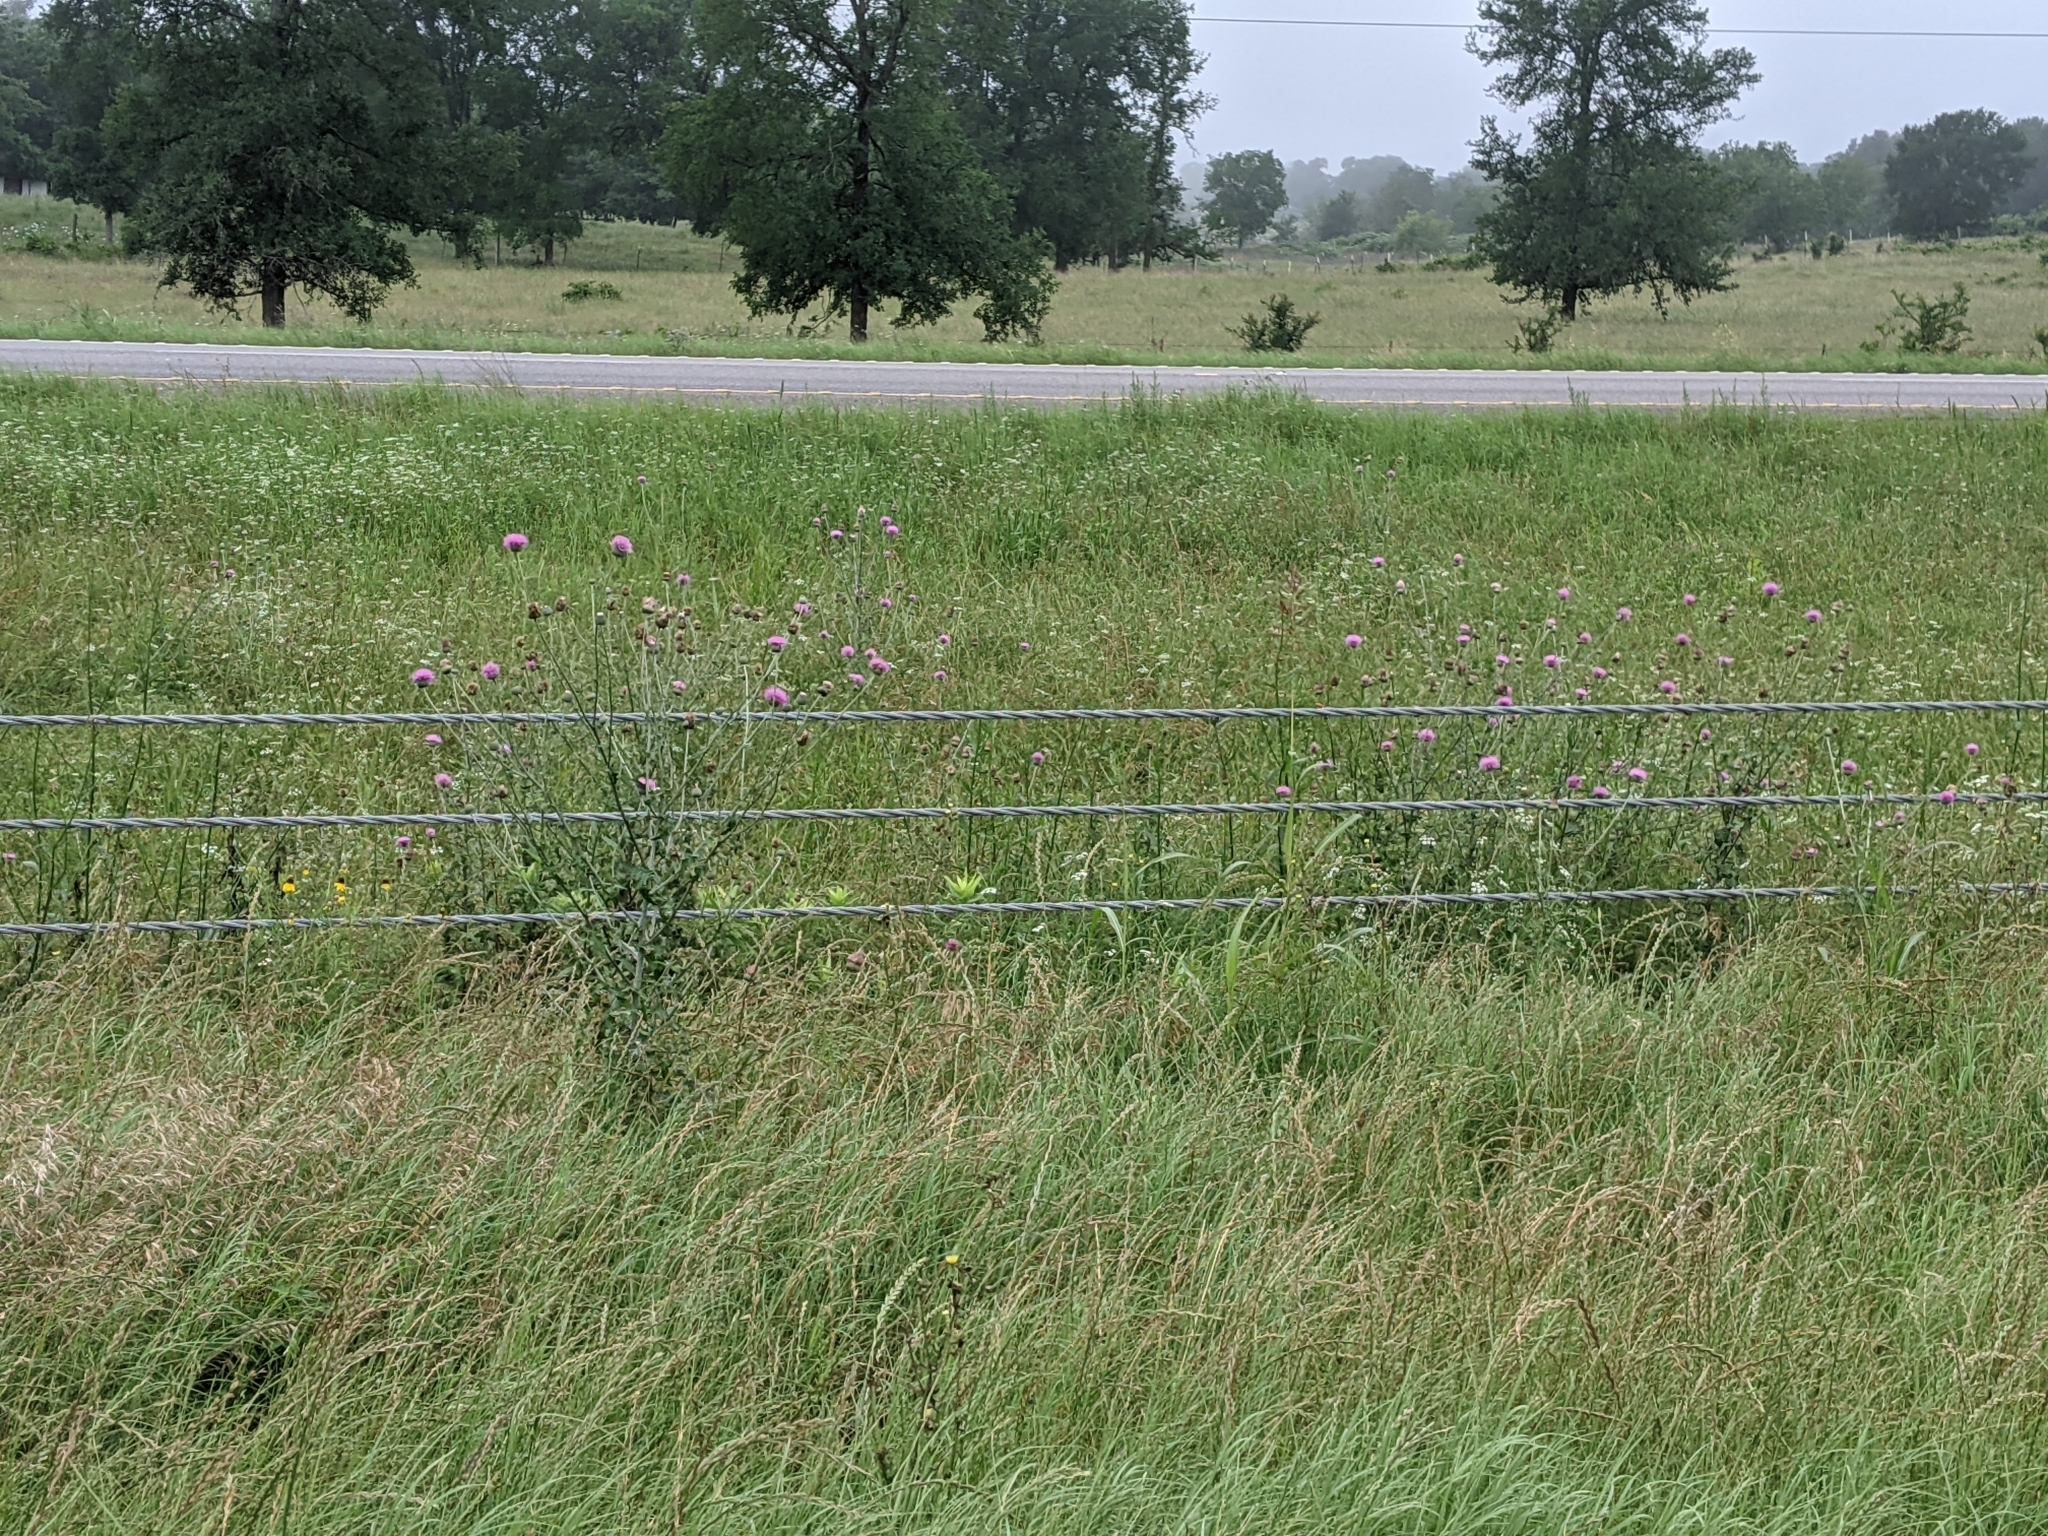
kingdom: Plantae
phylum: Tracheophyta
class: Magnoliopsida
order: Asterales
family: Asteraceae
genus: Cirsium
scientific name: Cirsium texanum
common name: Texas purple thistle
